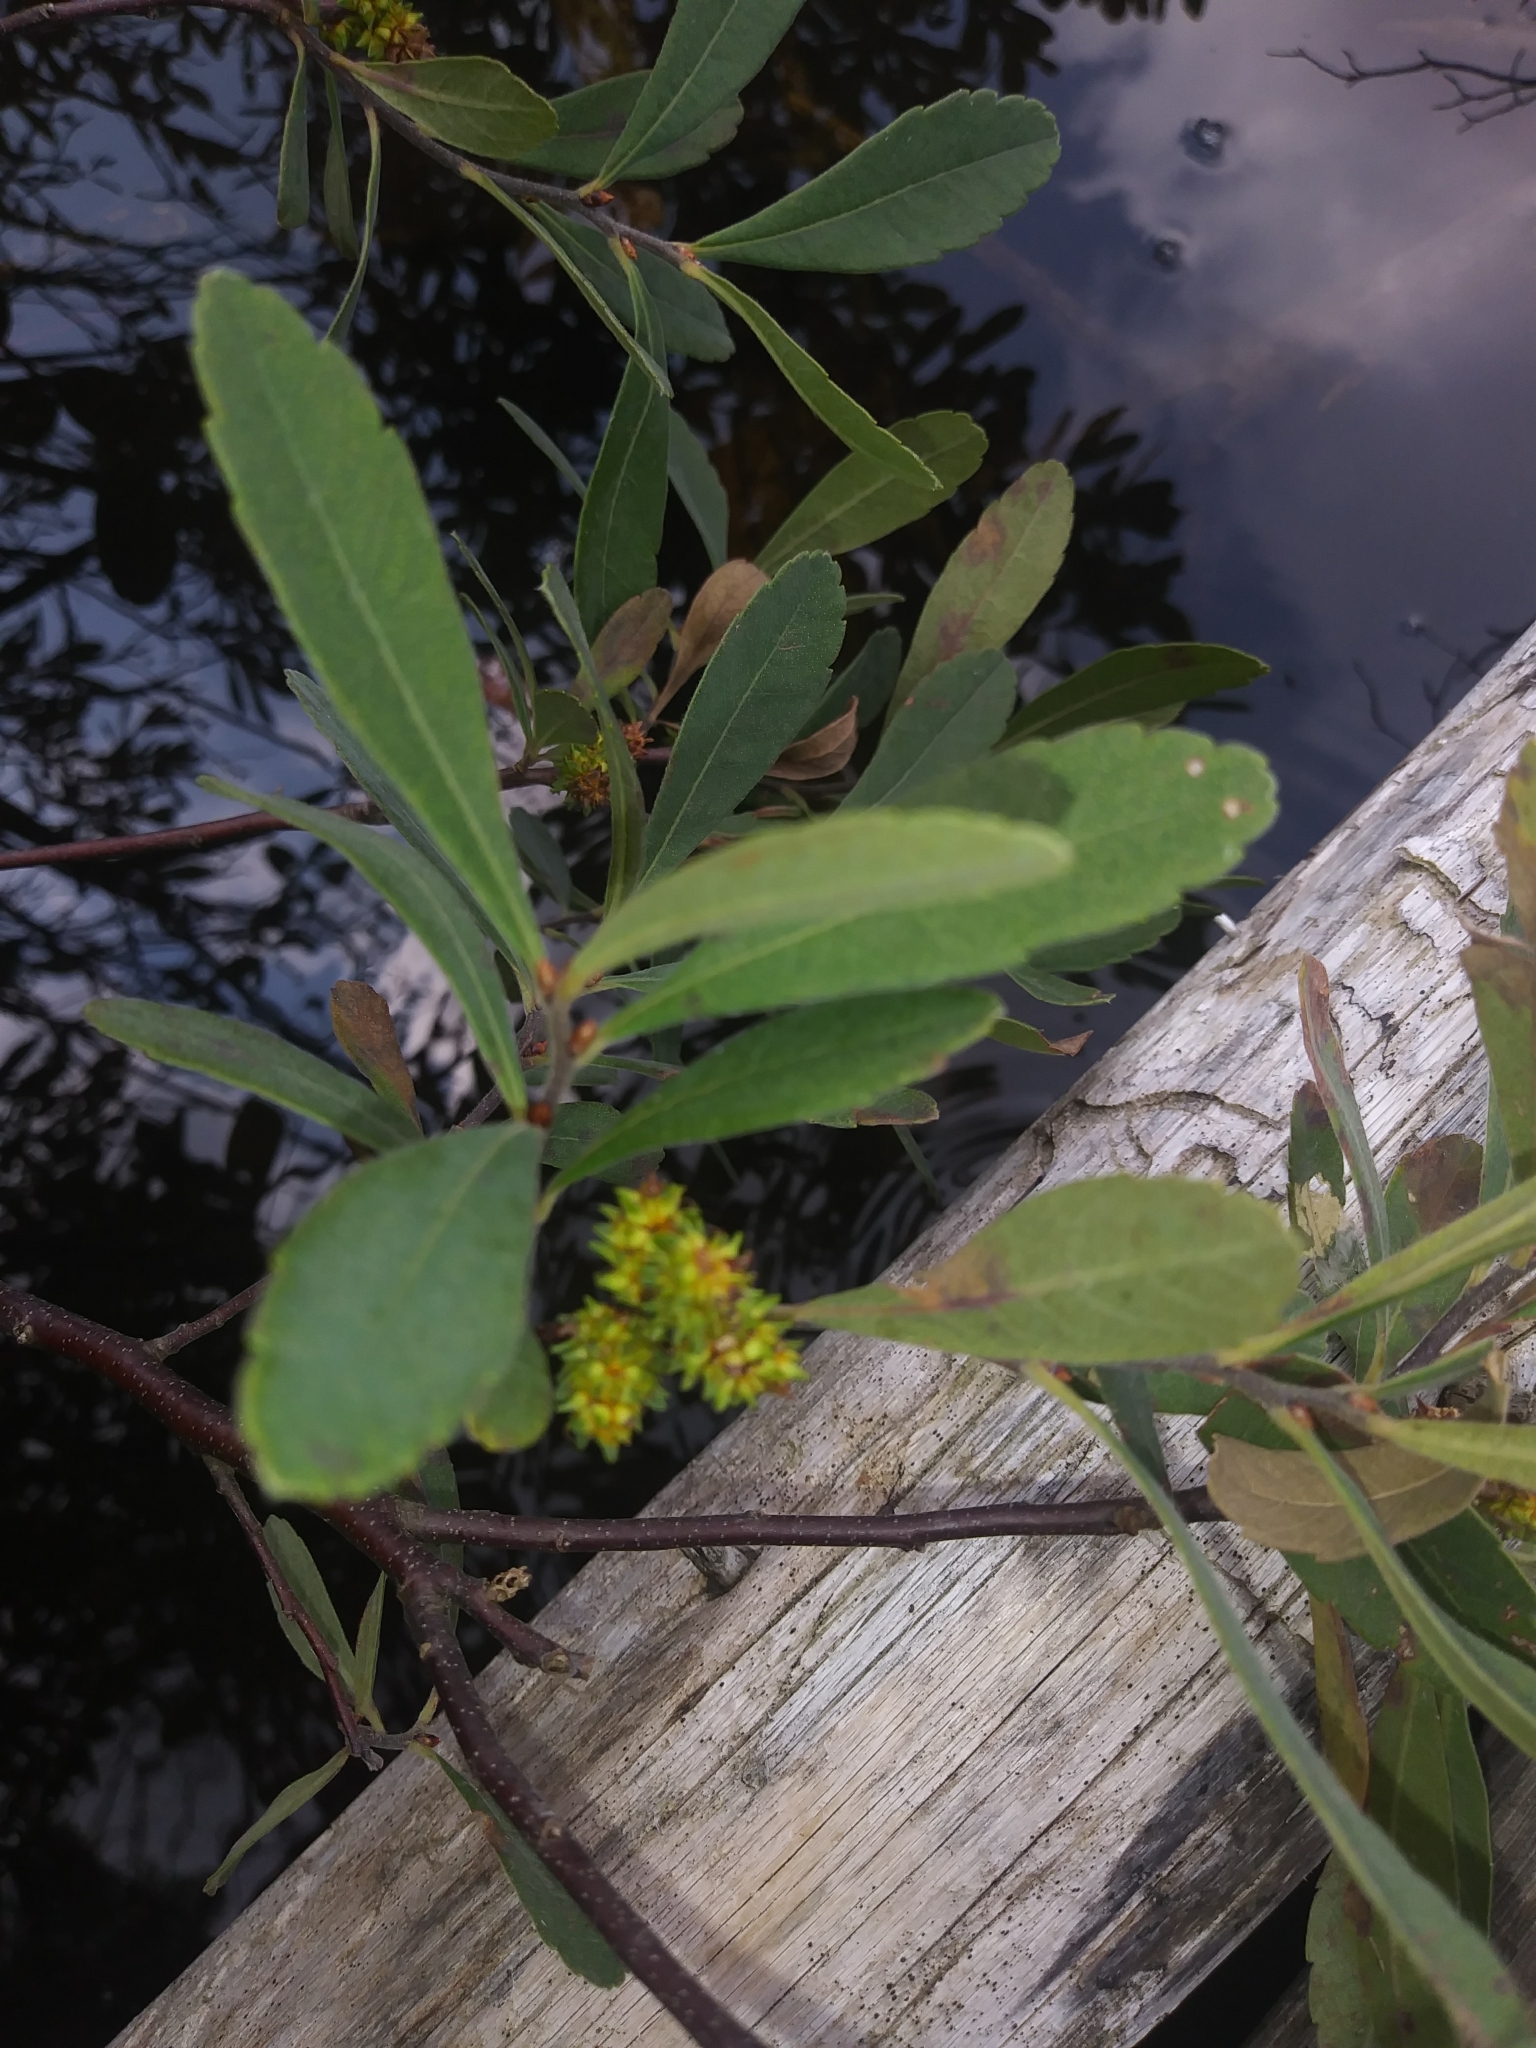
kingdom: Plantae
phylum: Tracheophyta
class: Magnoliopsida
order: Fagales
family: Myricaceae
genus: Myrica
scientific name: Myrica gale
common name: Sweet gale
